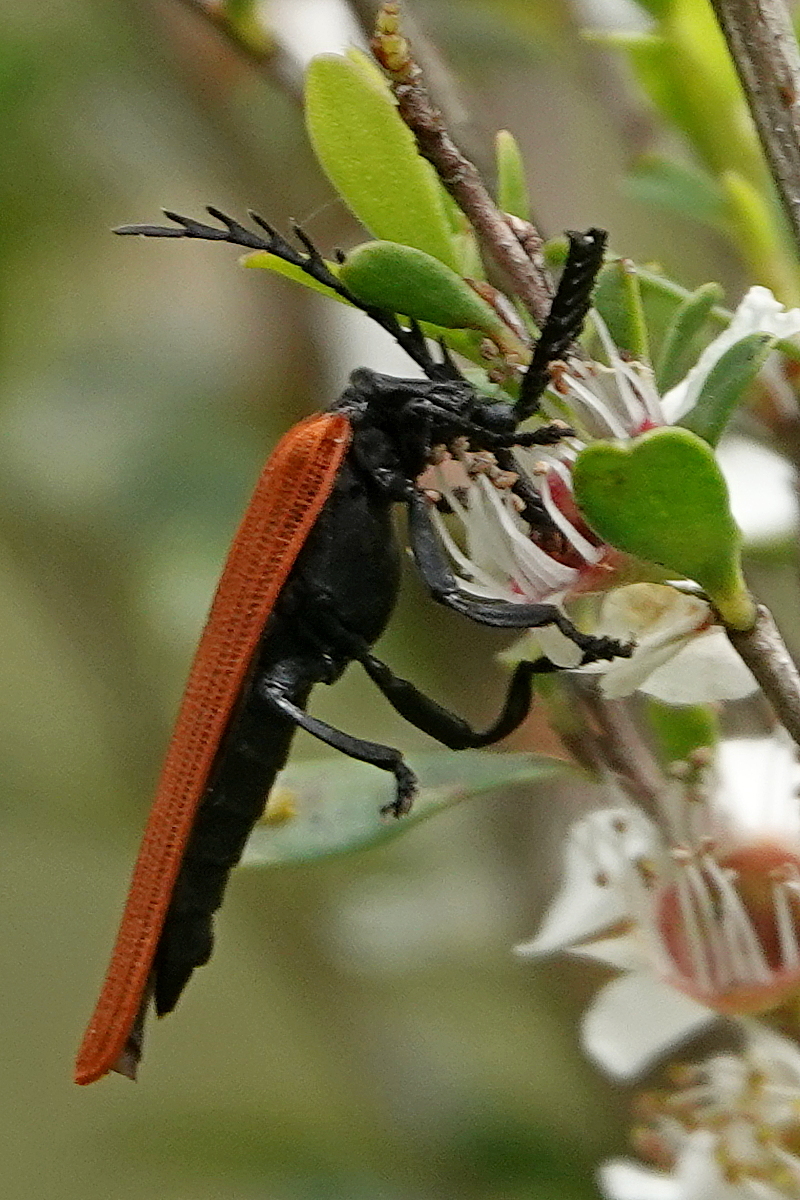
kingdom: Animalia
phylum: Arthropoda
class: Insecta
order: Coleoptera
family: Lycidae
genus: Porrostoma
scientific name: Porrostoma rhipidium
